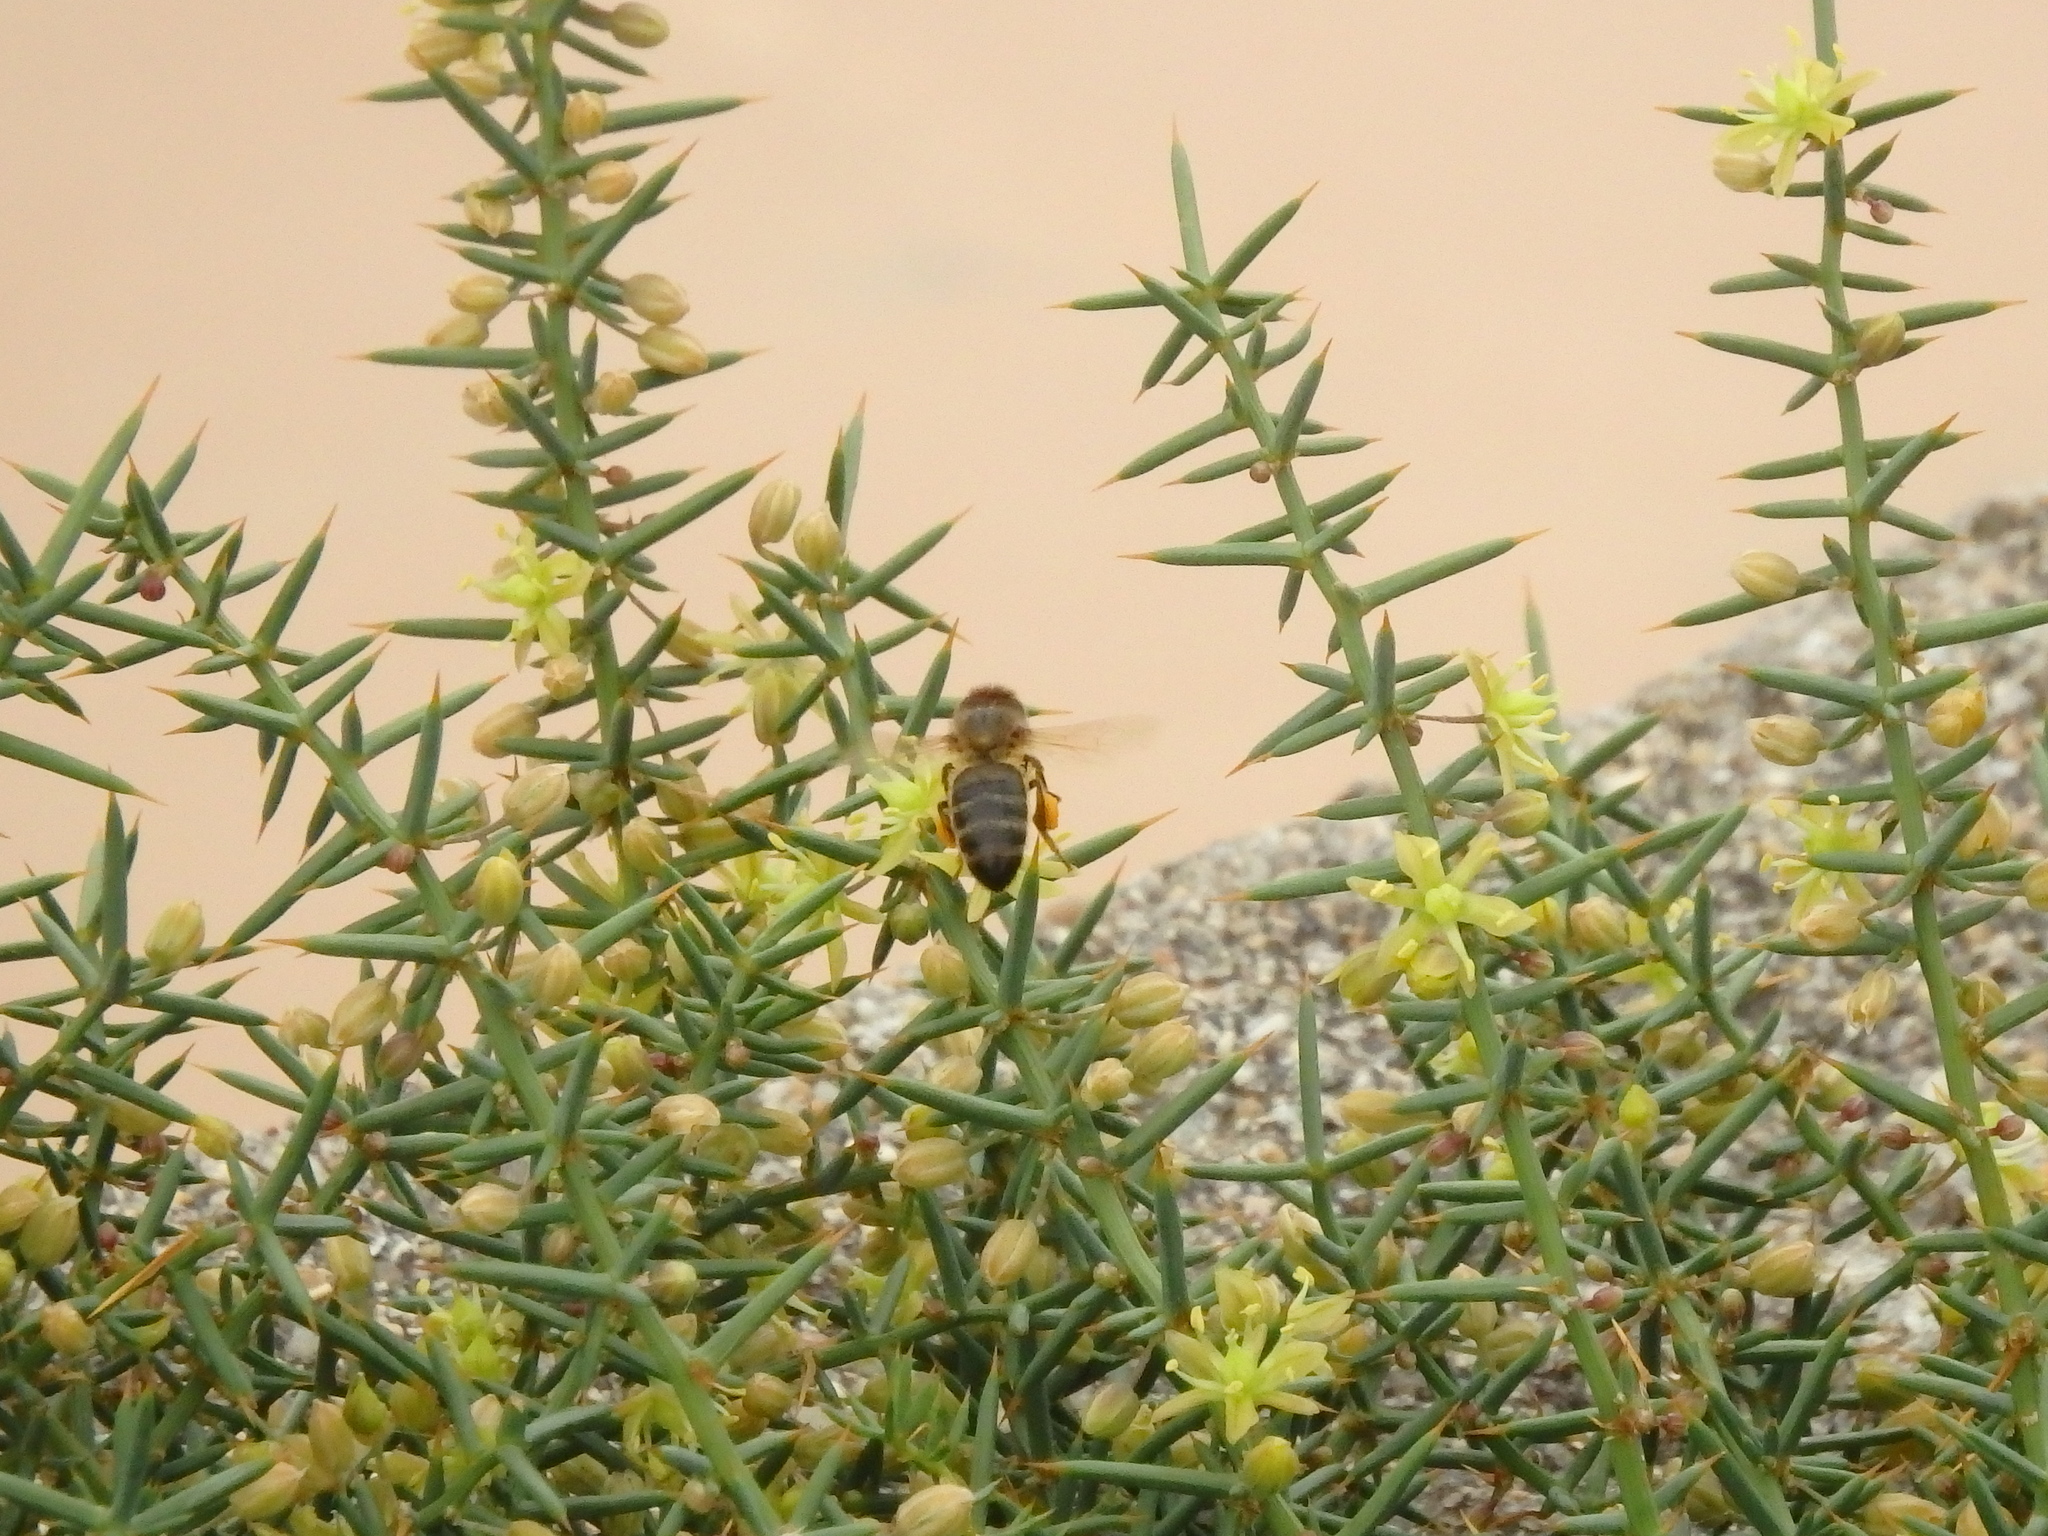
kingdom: Animalia
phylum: Arthropoda
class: Insecta
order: Hymenoptera
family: Apidae
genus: Apis
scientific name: Apis mellifera
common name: Honey bee
